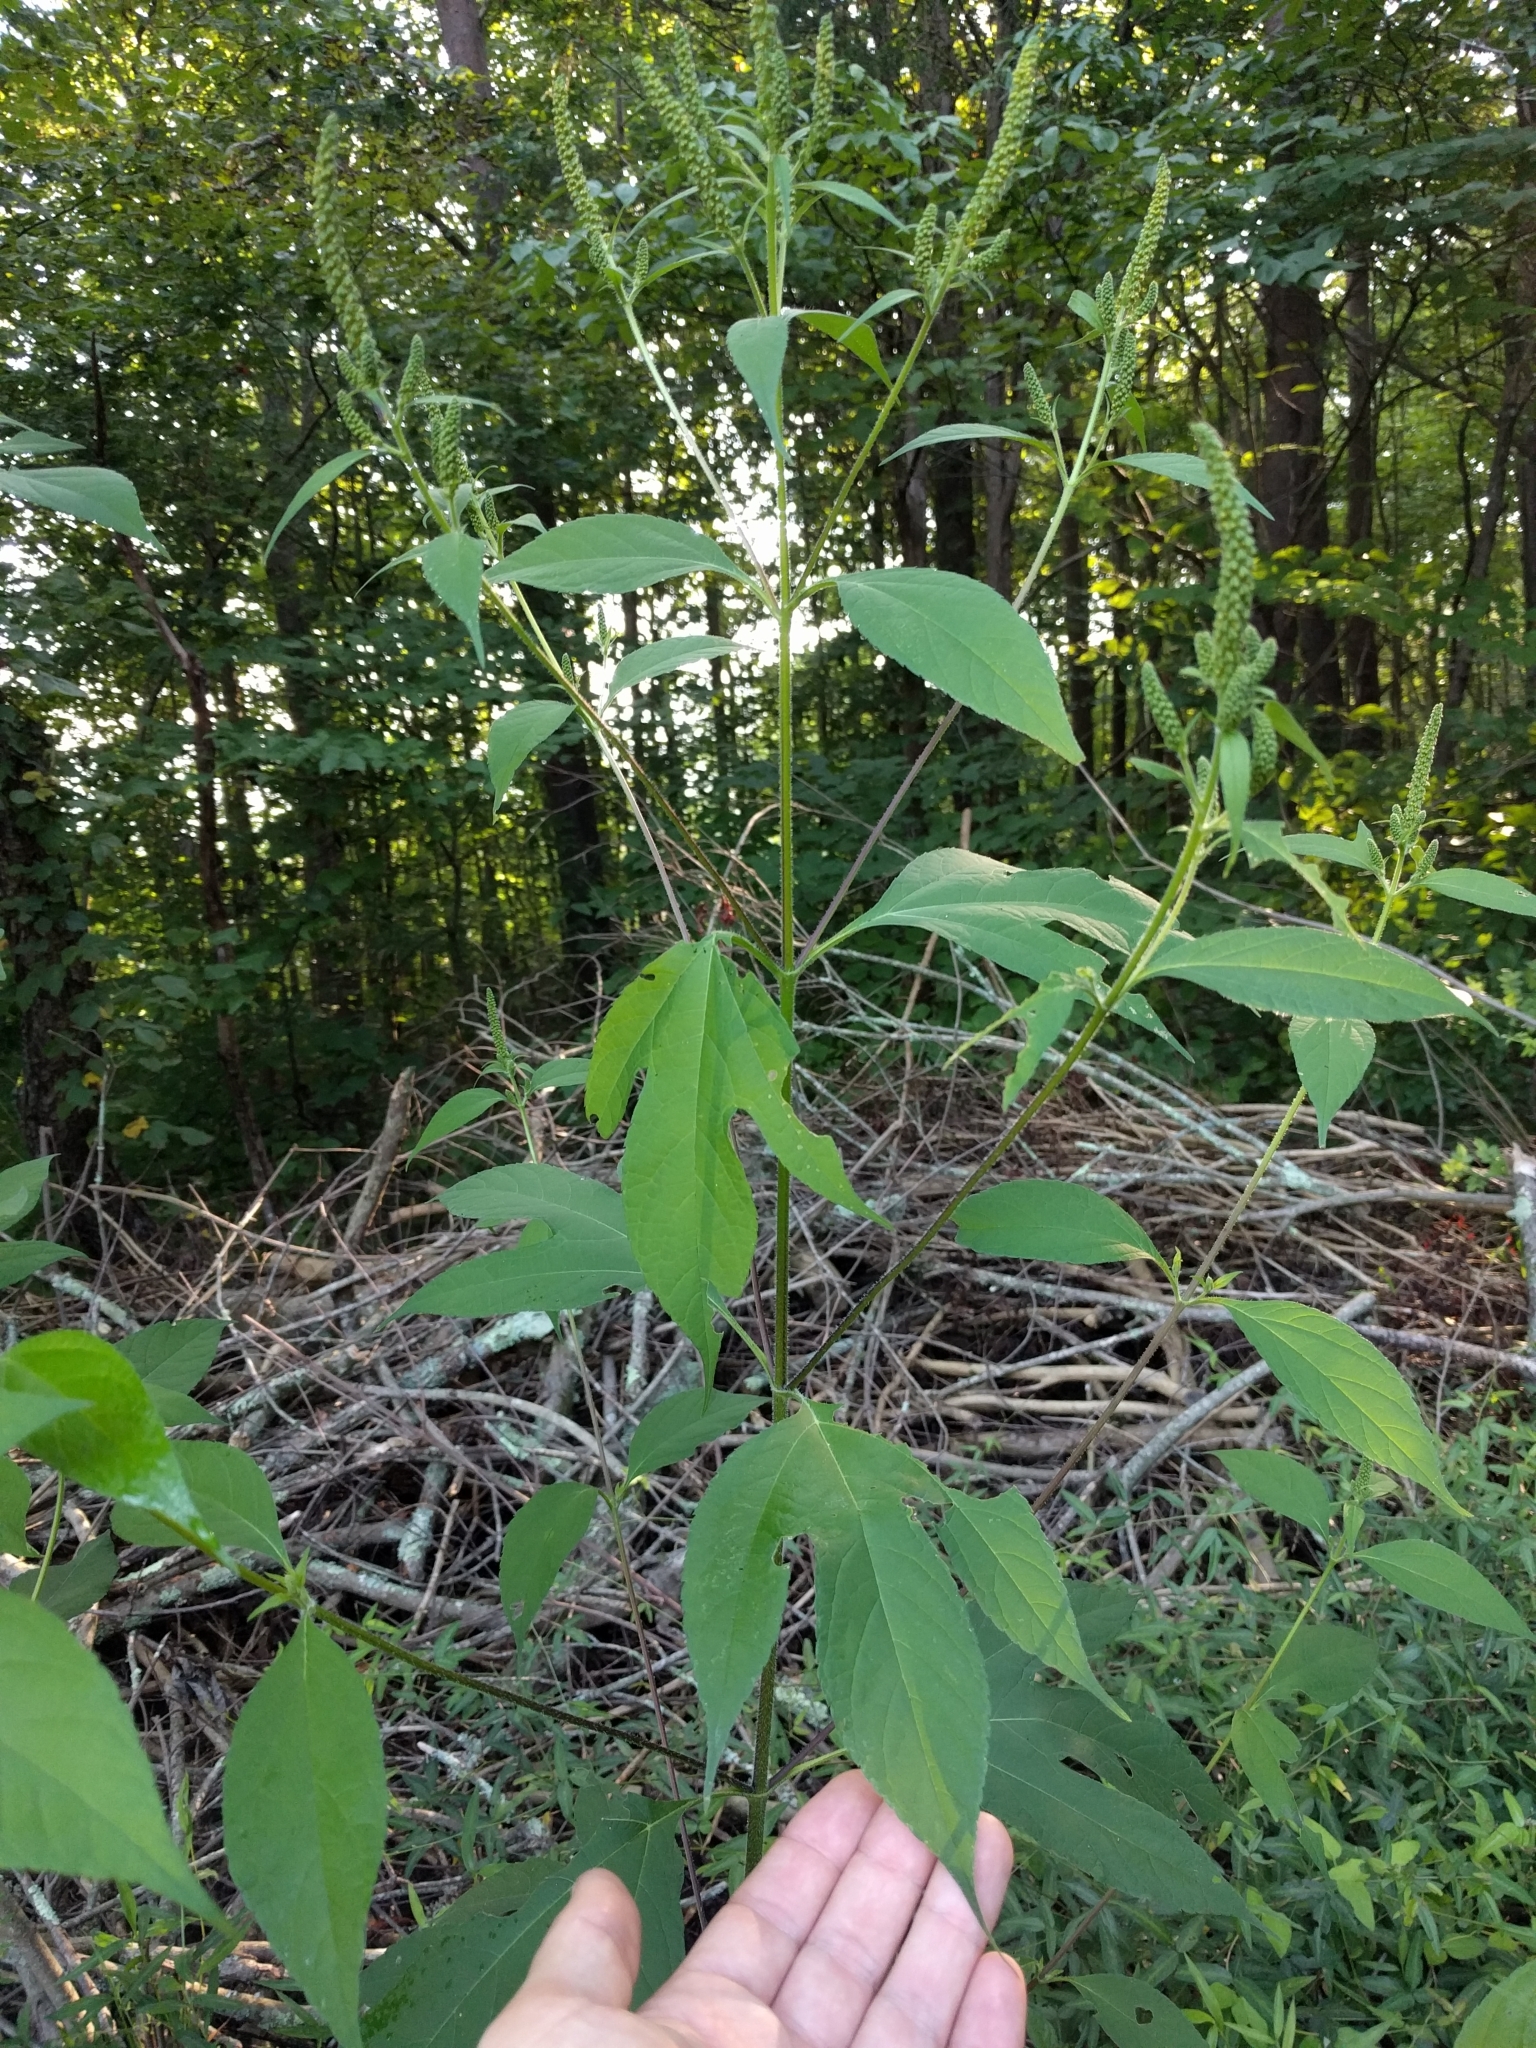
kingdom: Plantae
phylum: Tracheophyta
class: Magnoliopsida
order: Asterales
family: Asteraceae
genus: Ambrosia
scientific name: Ambrosia trifida
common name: Giant ragweed
